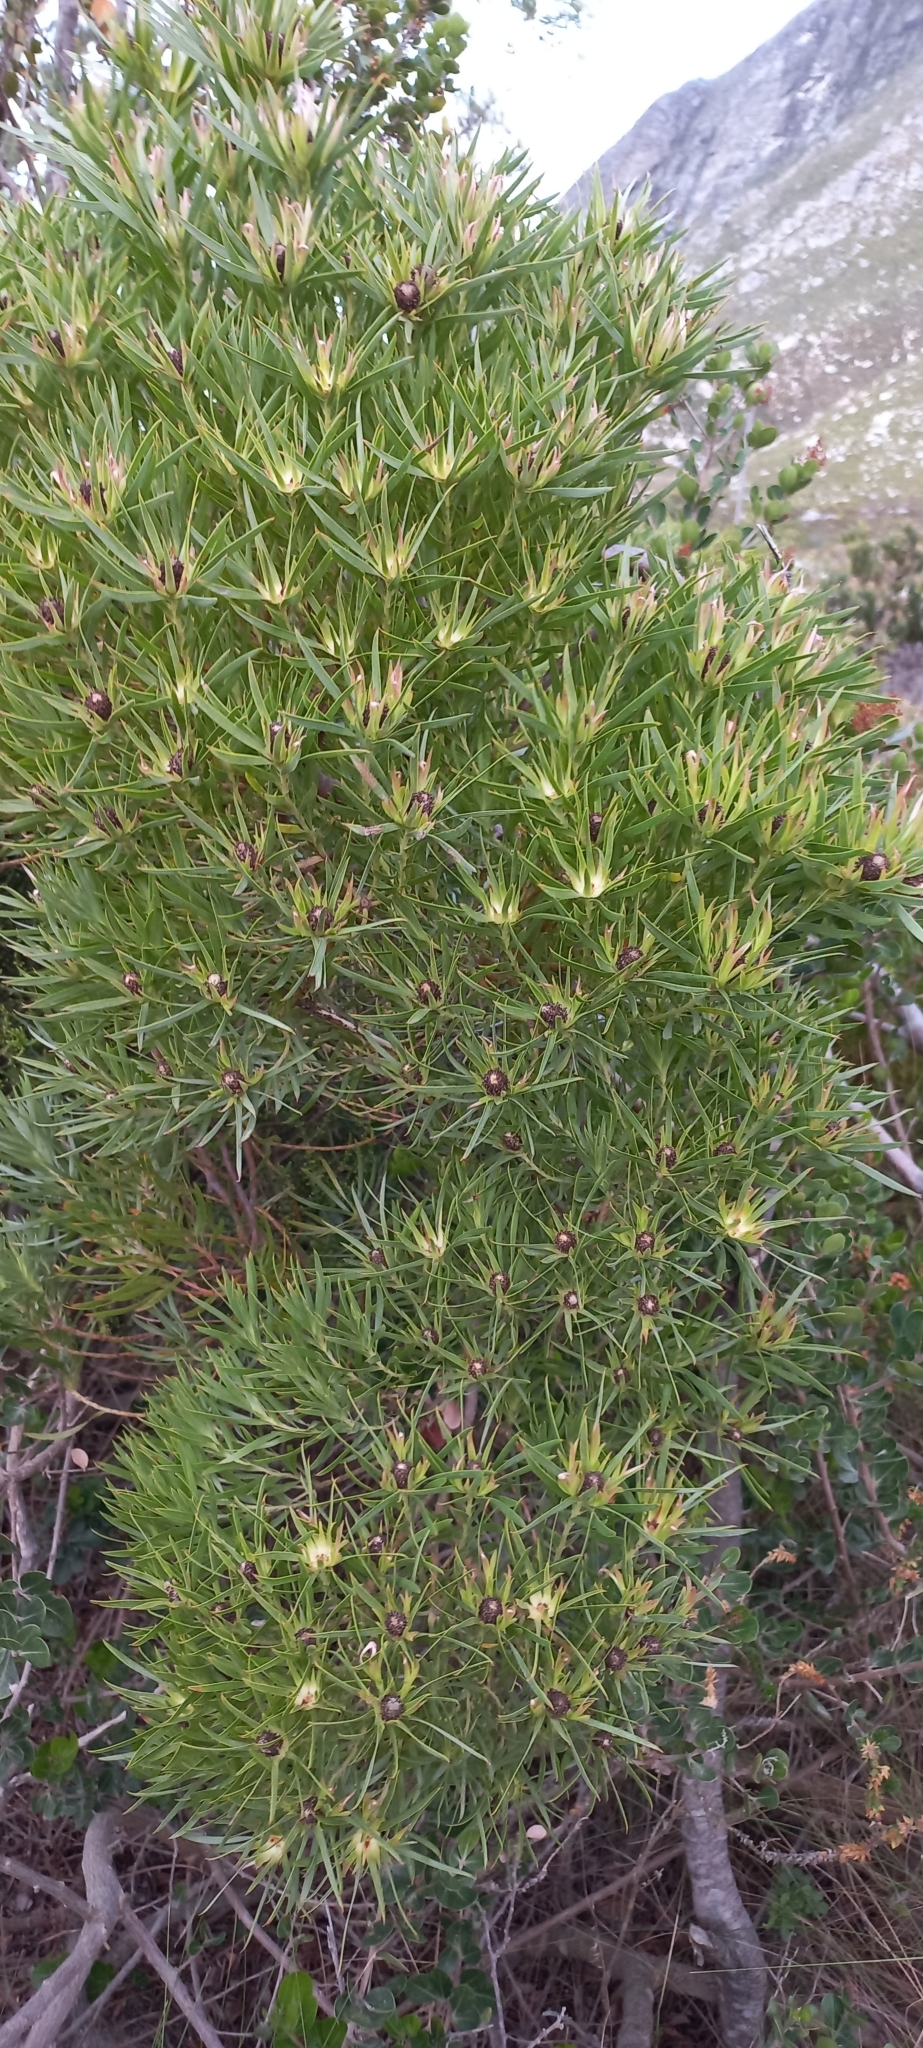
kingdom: Plantae
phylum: Tracheophyta
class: Magnoliopsida
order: Proteales
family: Proteaceae
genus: Leucadendron
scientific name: Leucadendron xanthoconus
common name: Sickle-leaf conebush
